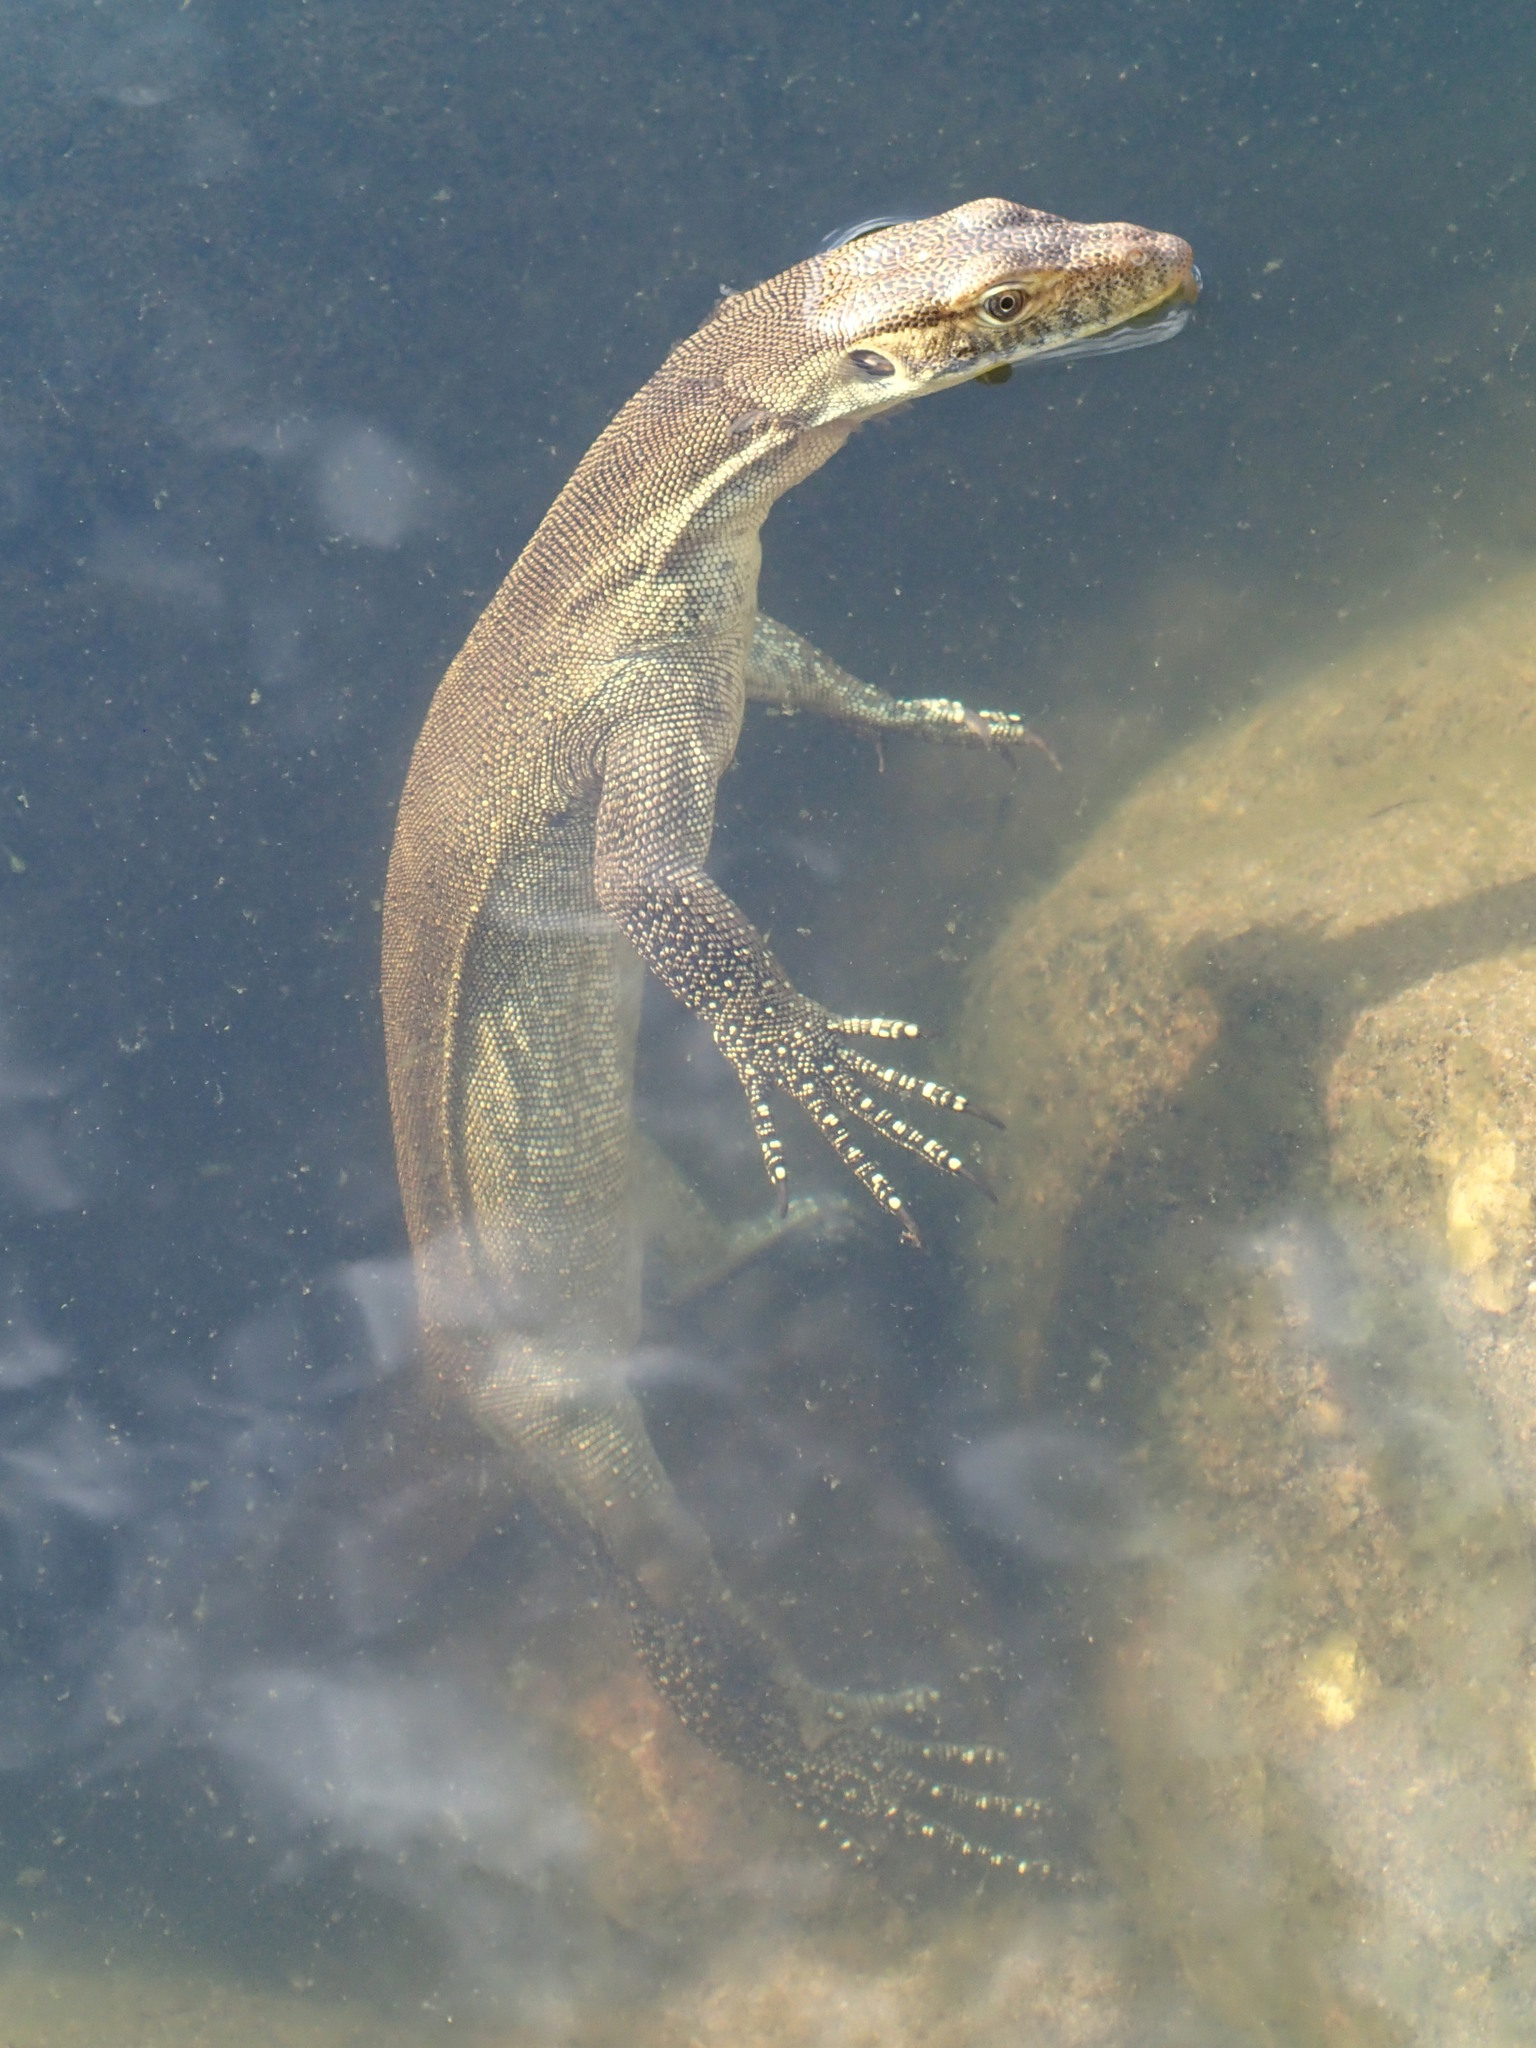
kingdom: Animalia
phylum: Chordata
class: Squamata
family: Varanidae
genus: Varanus
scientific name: Varanus mertensi
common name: Mertens's water monitor
